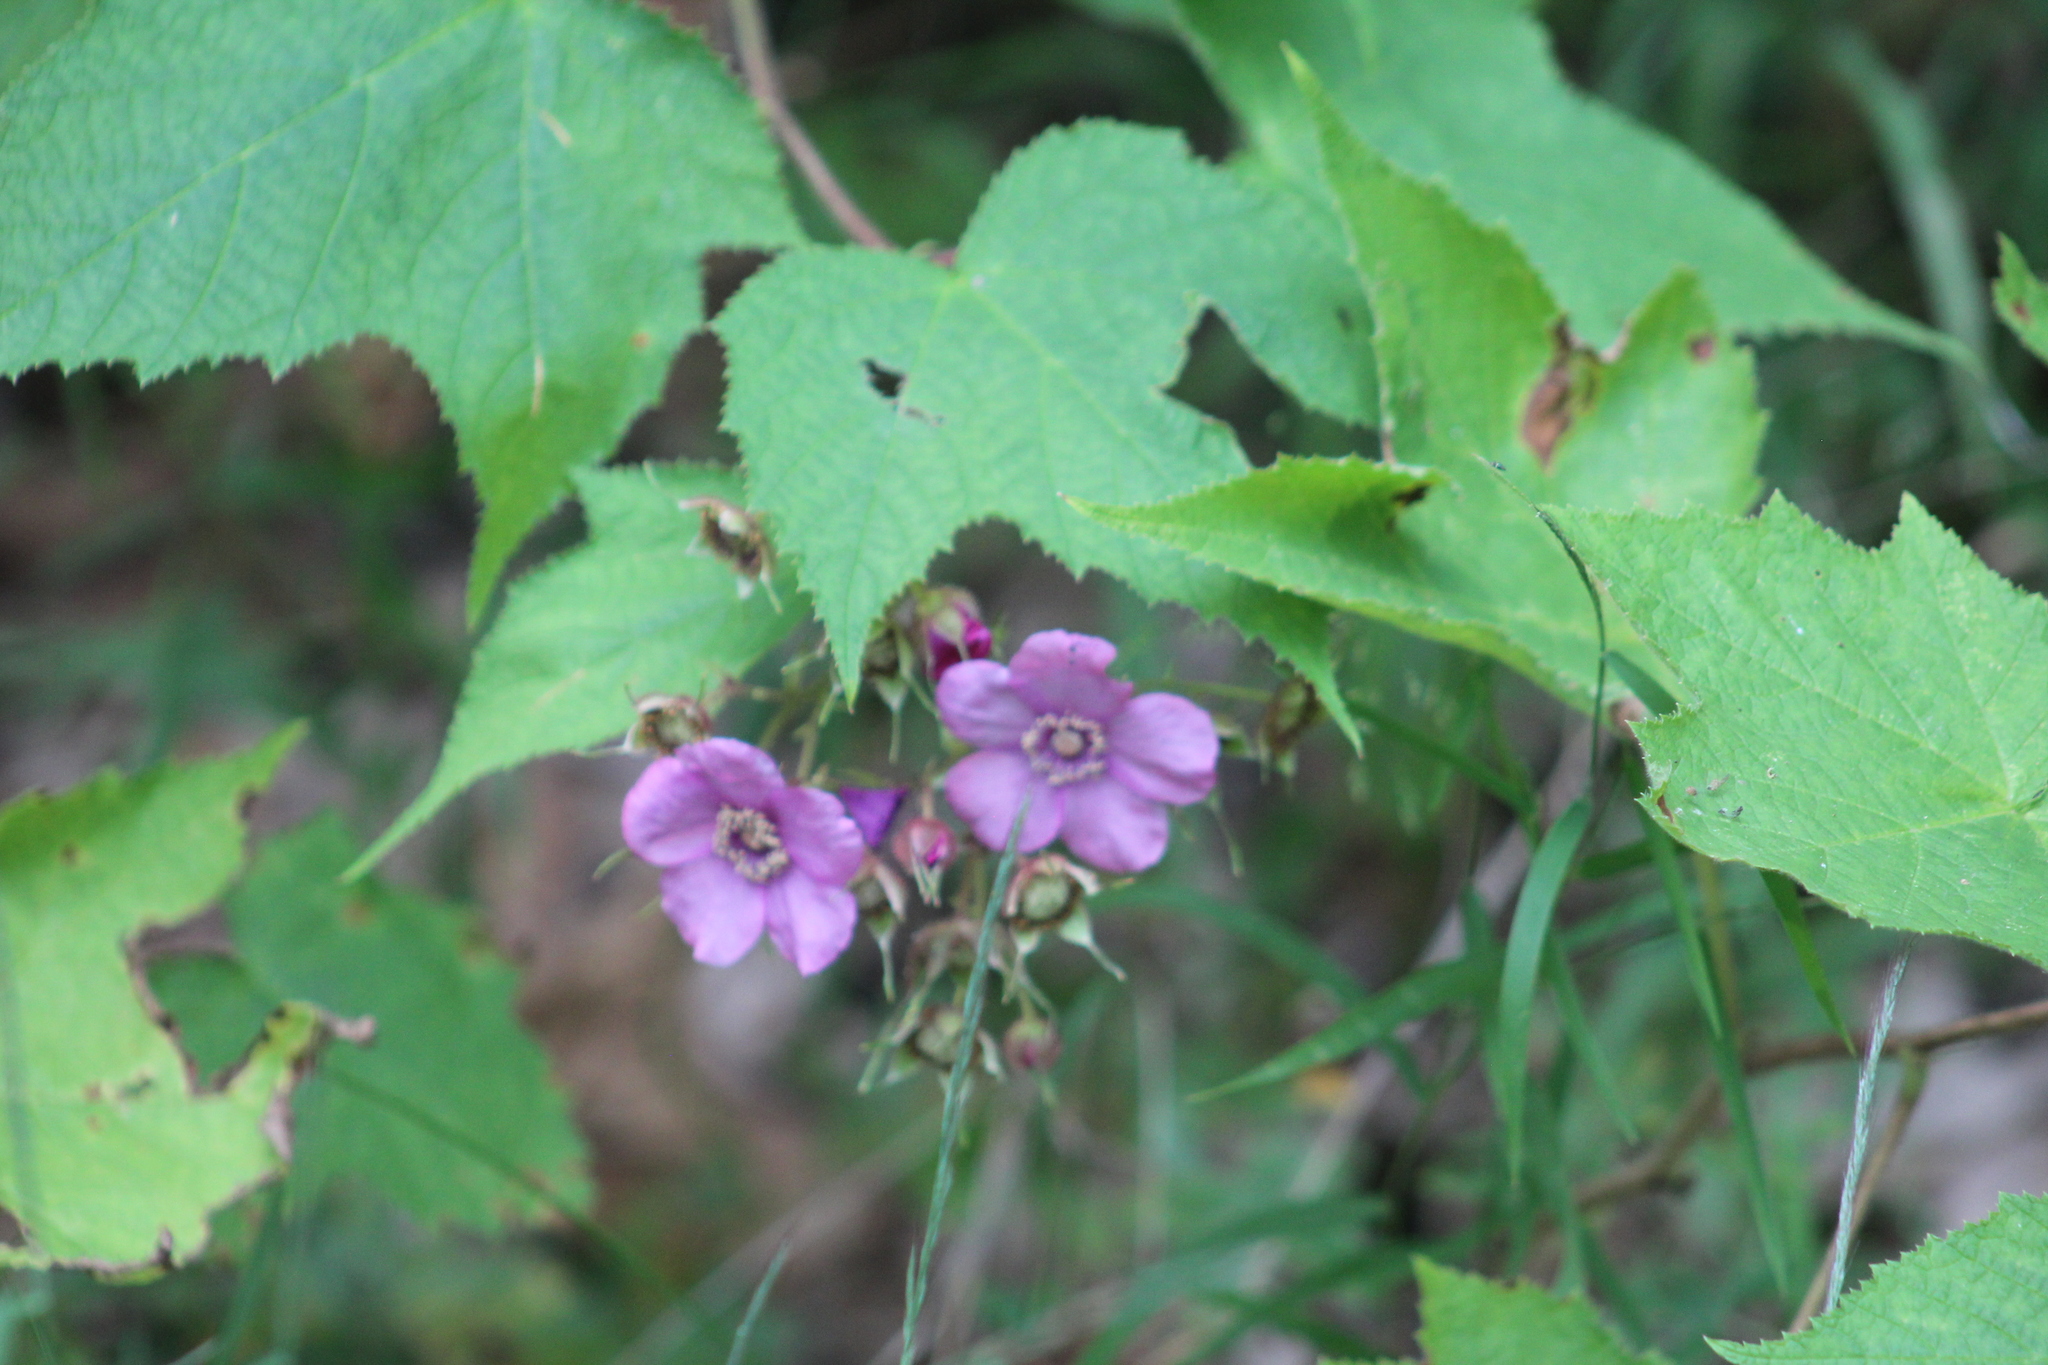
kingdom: Plantae
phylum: Tracheophyta
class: Magnoliopsida
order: Rosales
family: Rosaceae
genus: Rubus
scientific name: Rubus odoratus
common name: Purple-flowered raspberry
